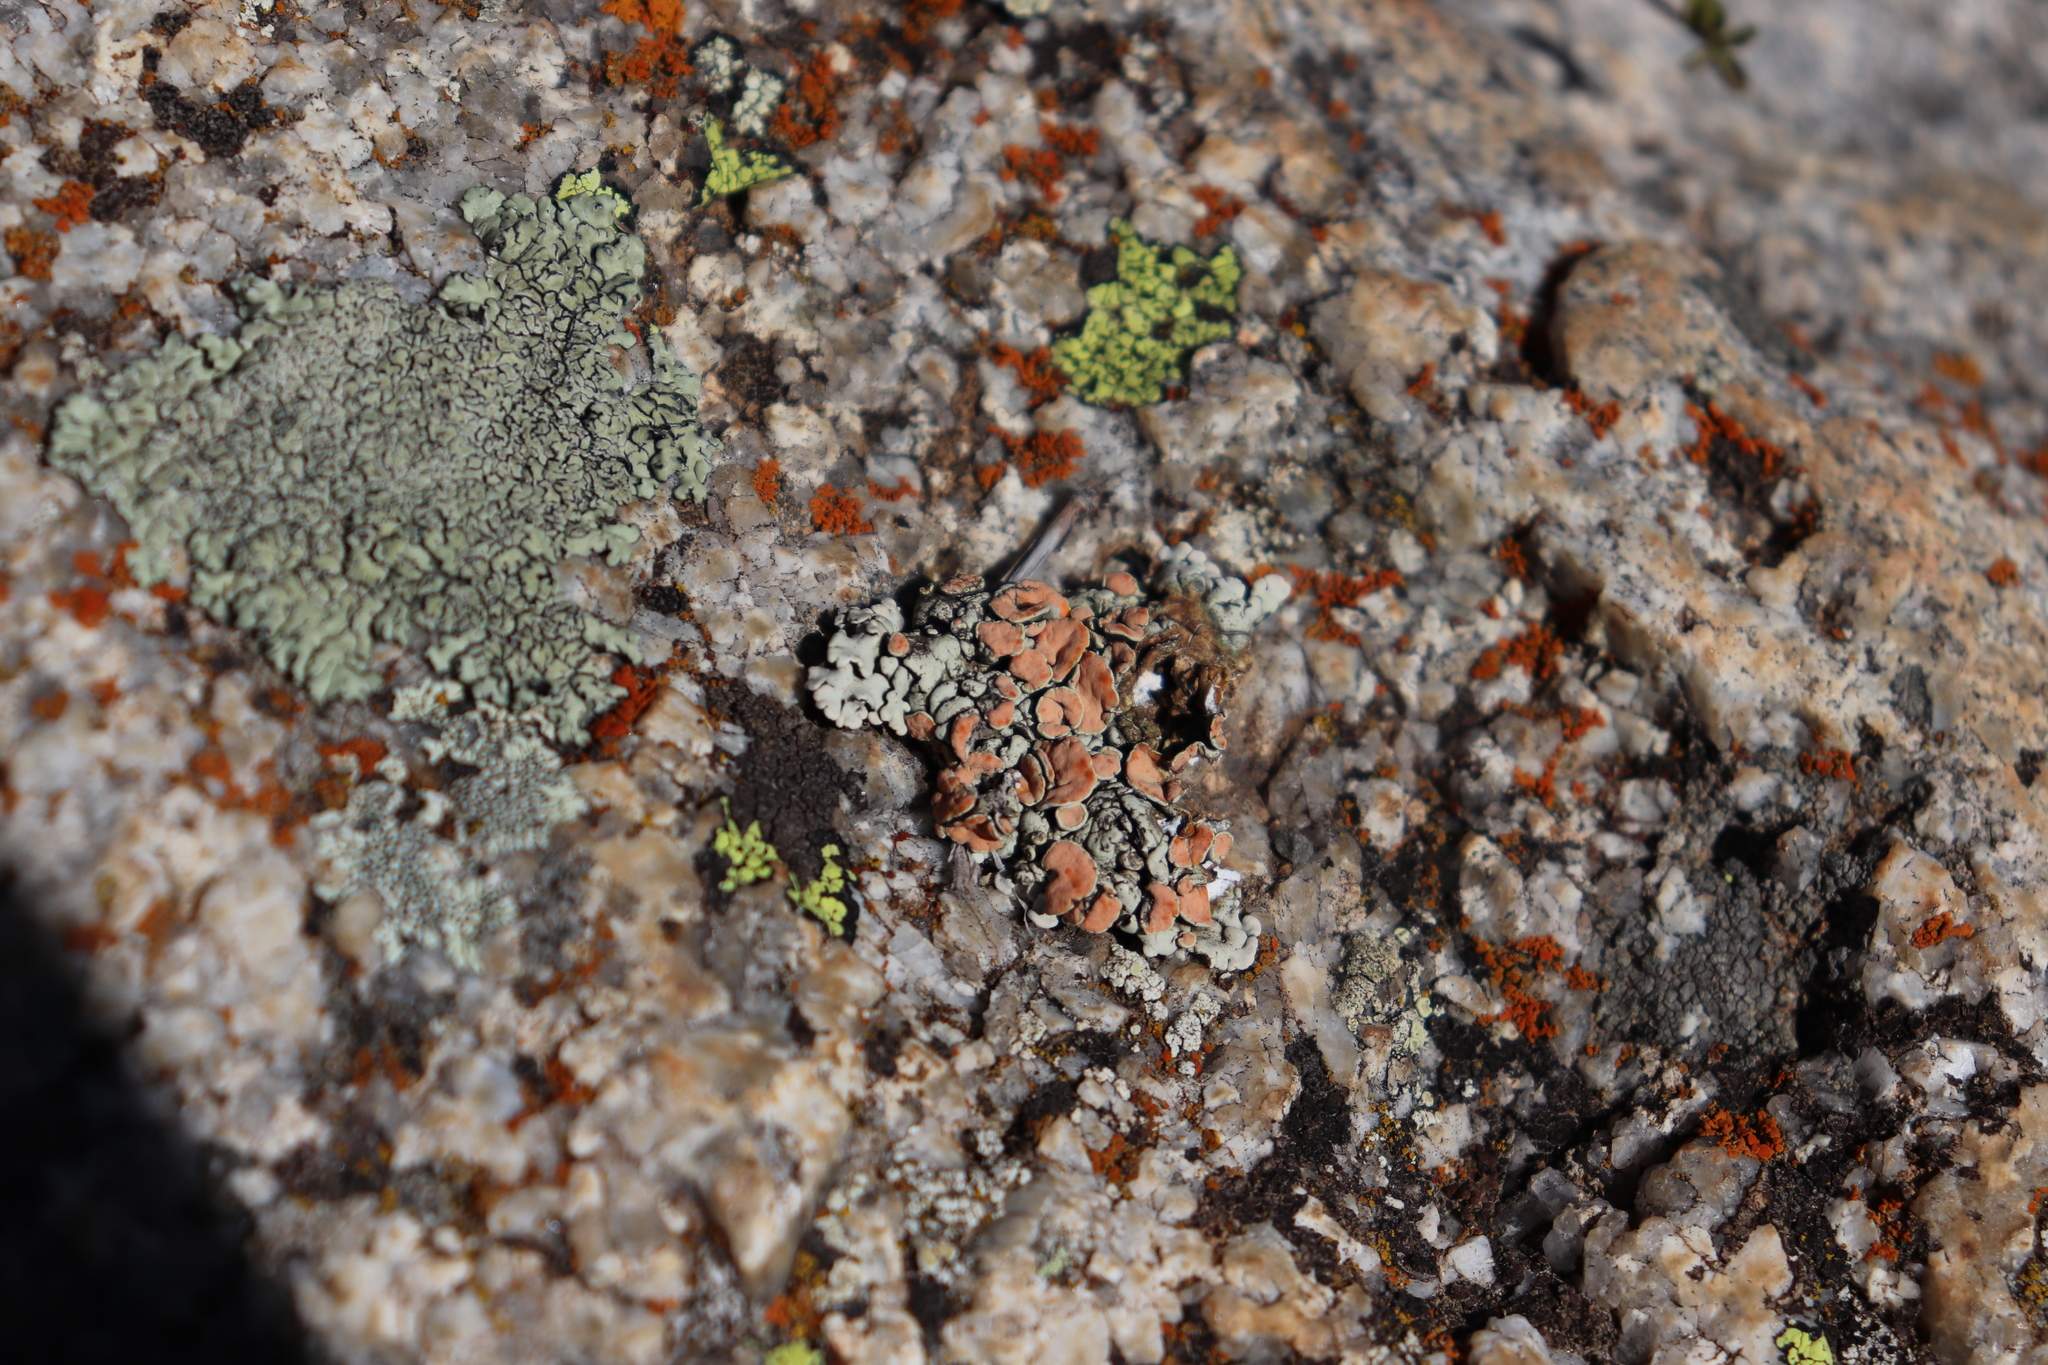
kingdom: Fungi
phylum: Ascomycota
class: Lecanoromycetes
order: Lecanorales
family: Lecanoraceae
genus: Omphalodina
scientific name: Omphalodina chrysoleuca
